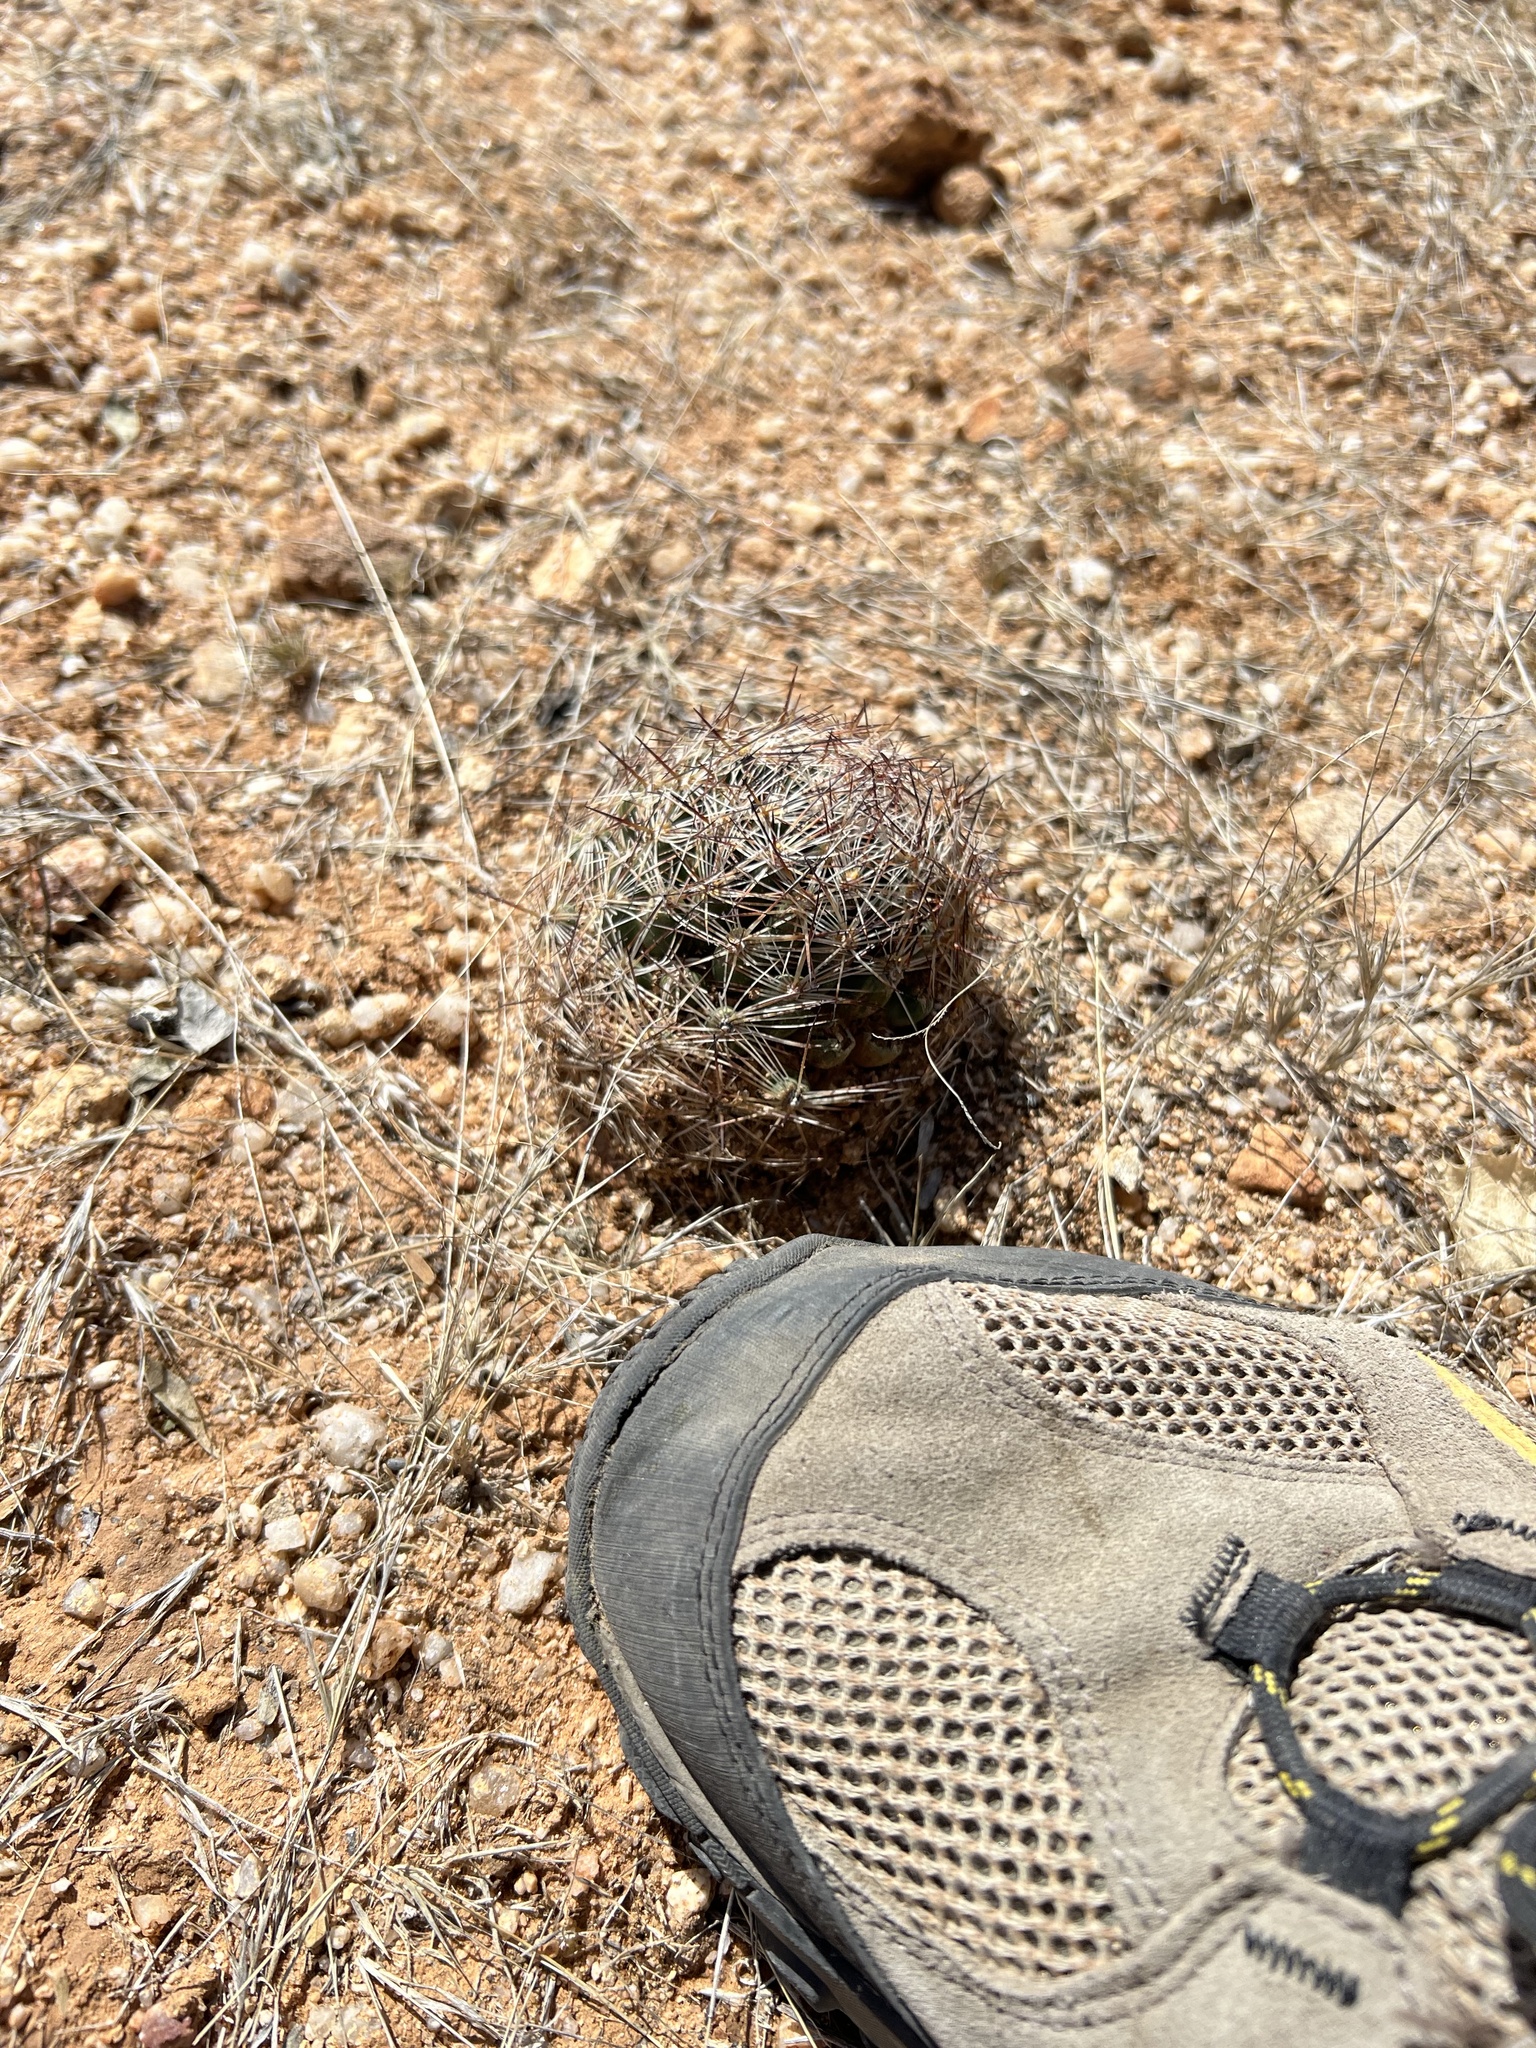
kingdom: Plantae
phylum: Tracheophyta
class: Magnoliopsida
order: Caryophyllales
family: Cactaceae
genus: Pelecyphora
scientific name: Pelecyphora vivipara
